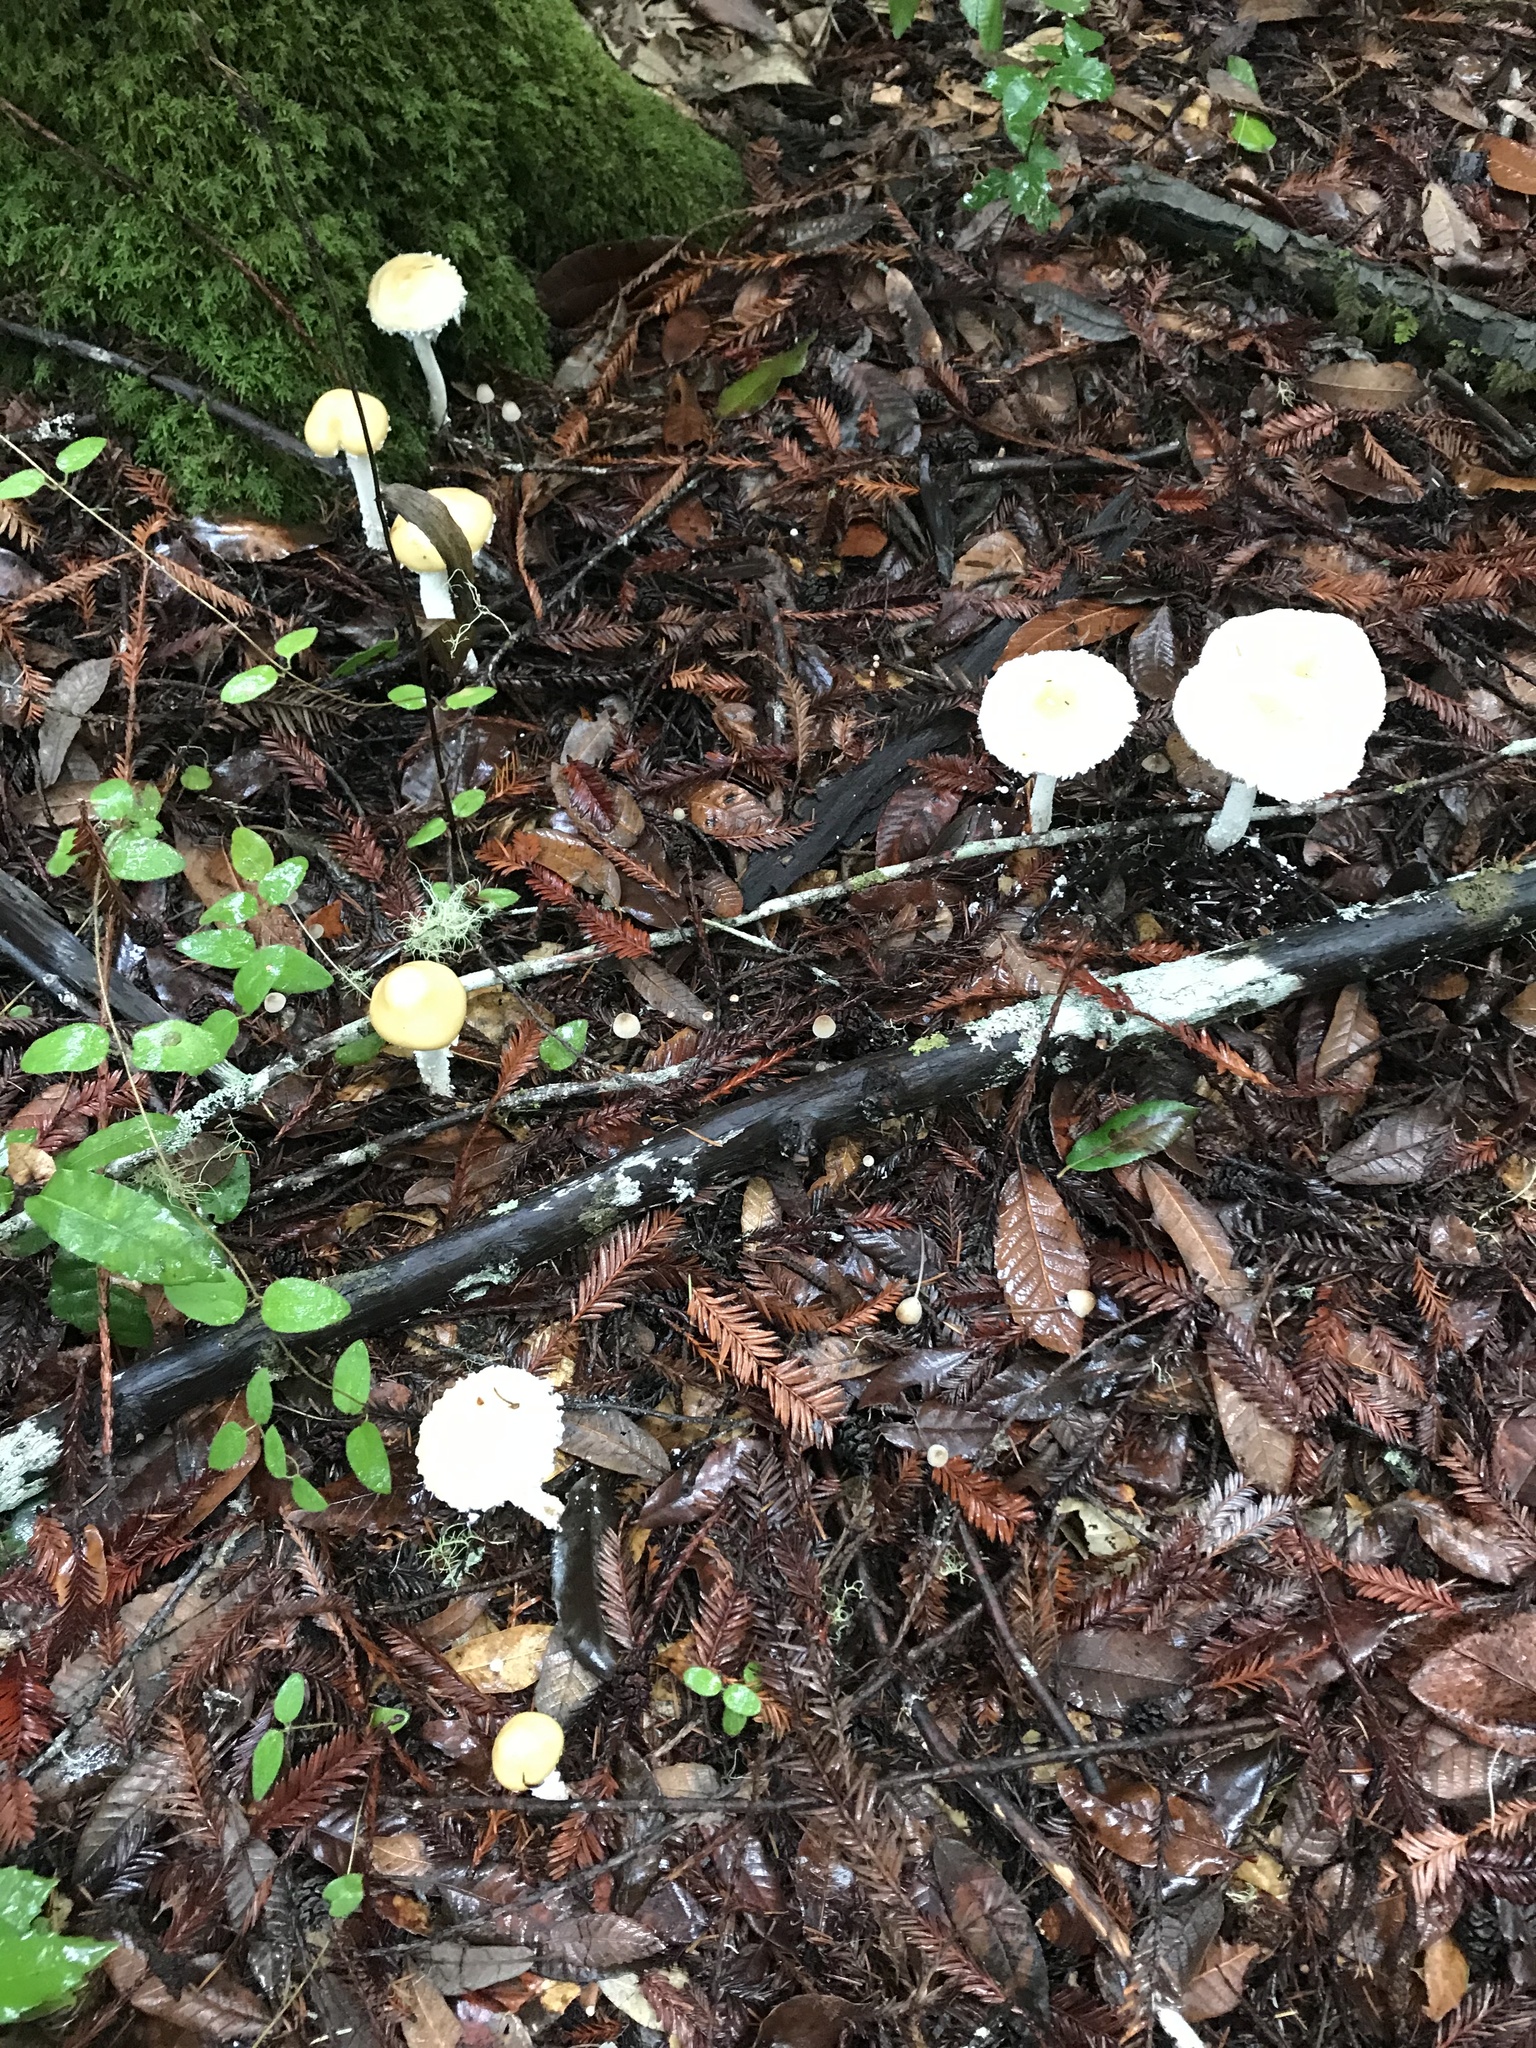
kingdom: Fungi
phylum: Basidiomycota
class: Agaricomycetes
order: Agaricales
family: Strophariaceae
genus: Stropharia
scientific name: Stropharia ambigua
